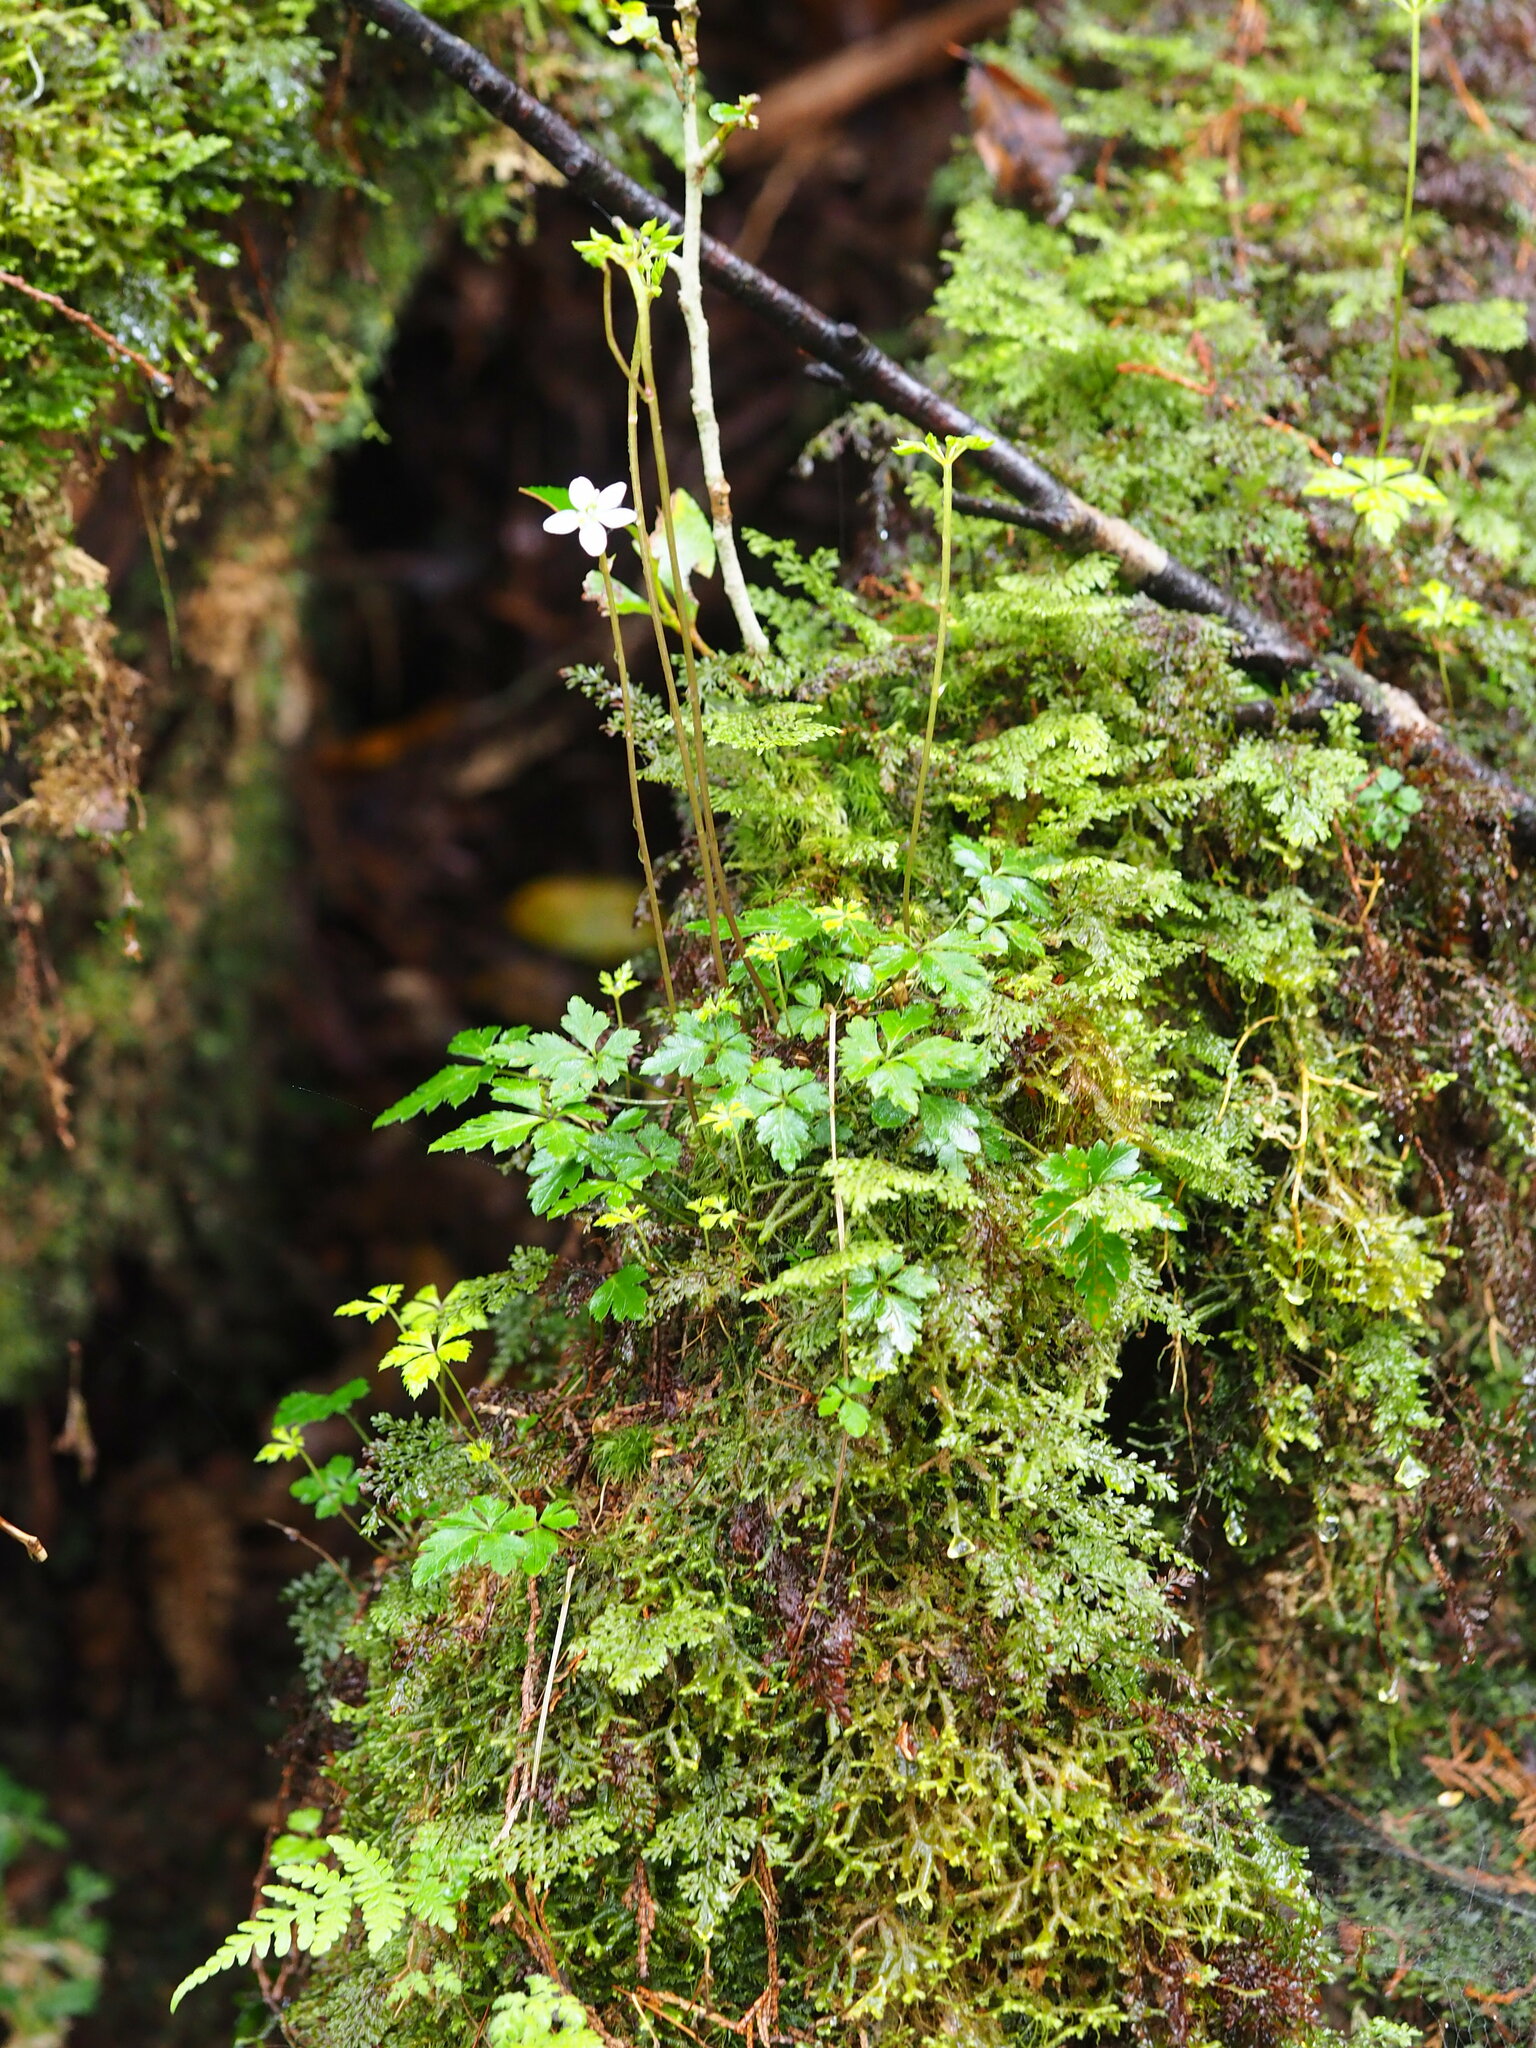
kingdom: Plantae
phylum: Tracheophyta
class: Magnoliopsida
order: Ranunculales
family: Ranunculaceae
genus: Coptis
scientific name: Coptis quinquefolia
